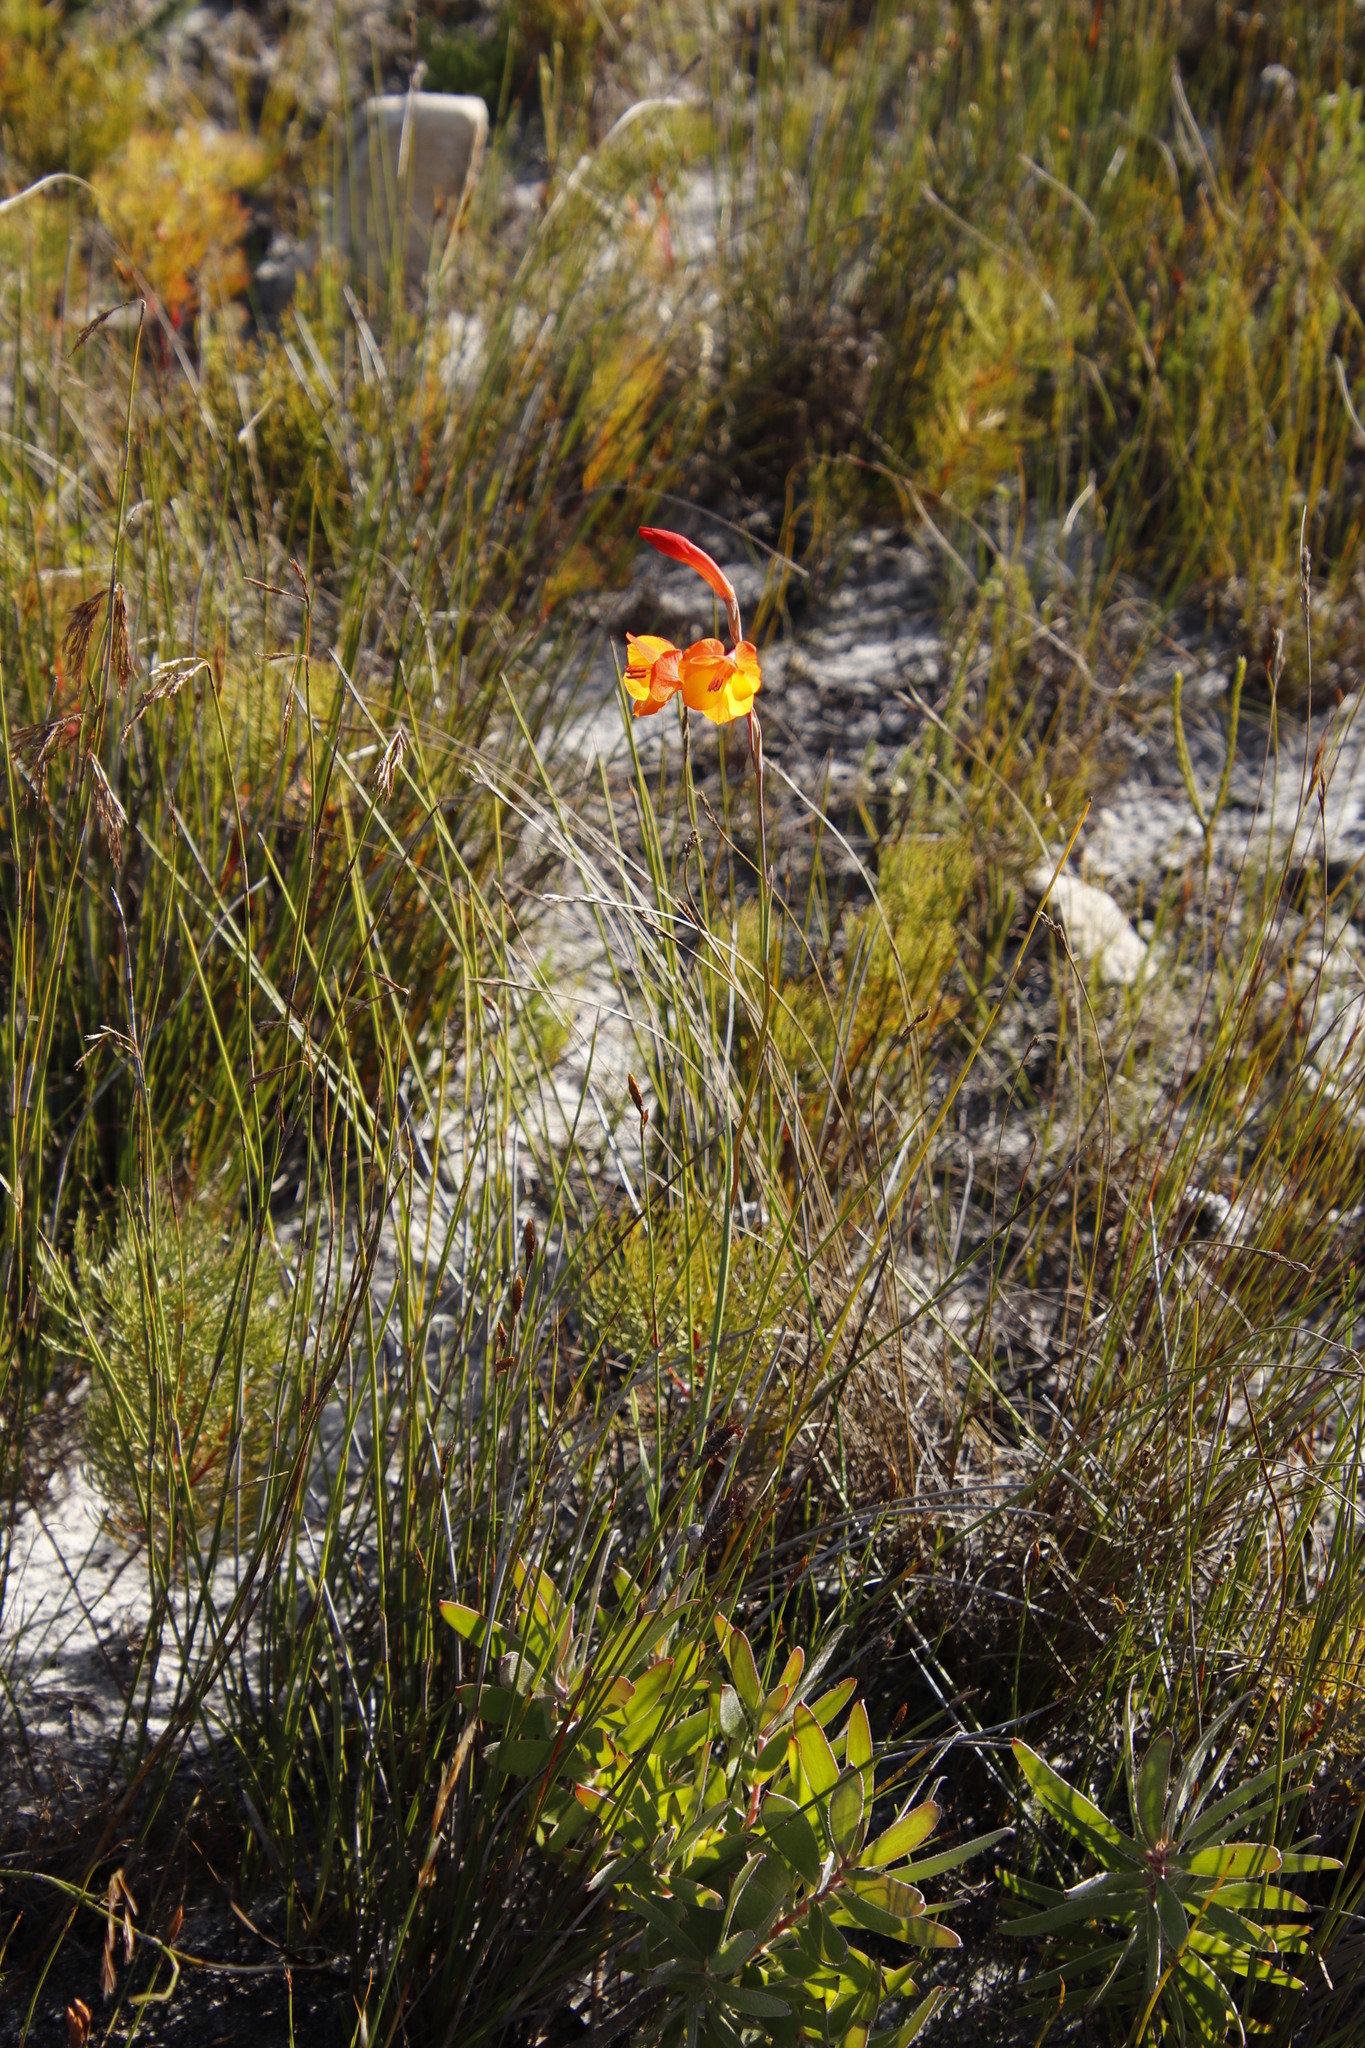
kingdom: Plantae
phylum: Tracheophyta
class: Liliopsida
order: Asparagales
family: Iridaceae
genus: Gladiolus
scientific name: Gladiolus merianellus
